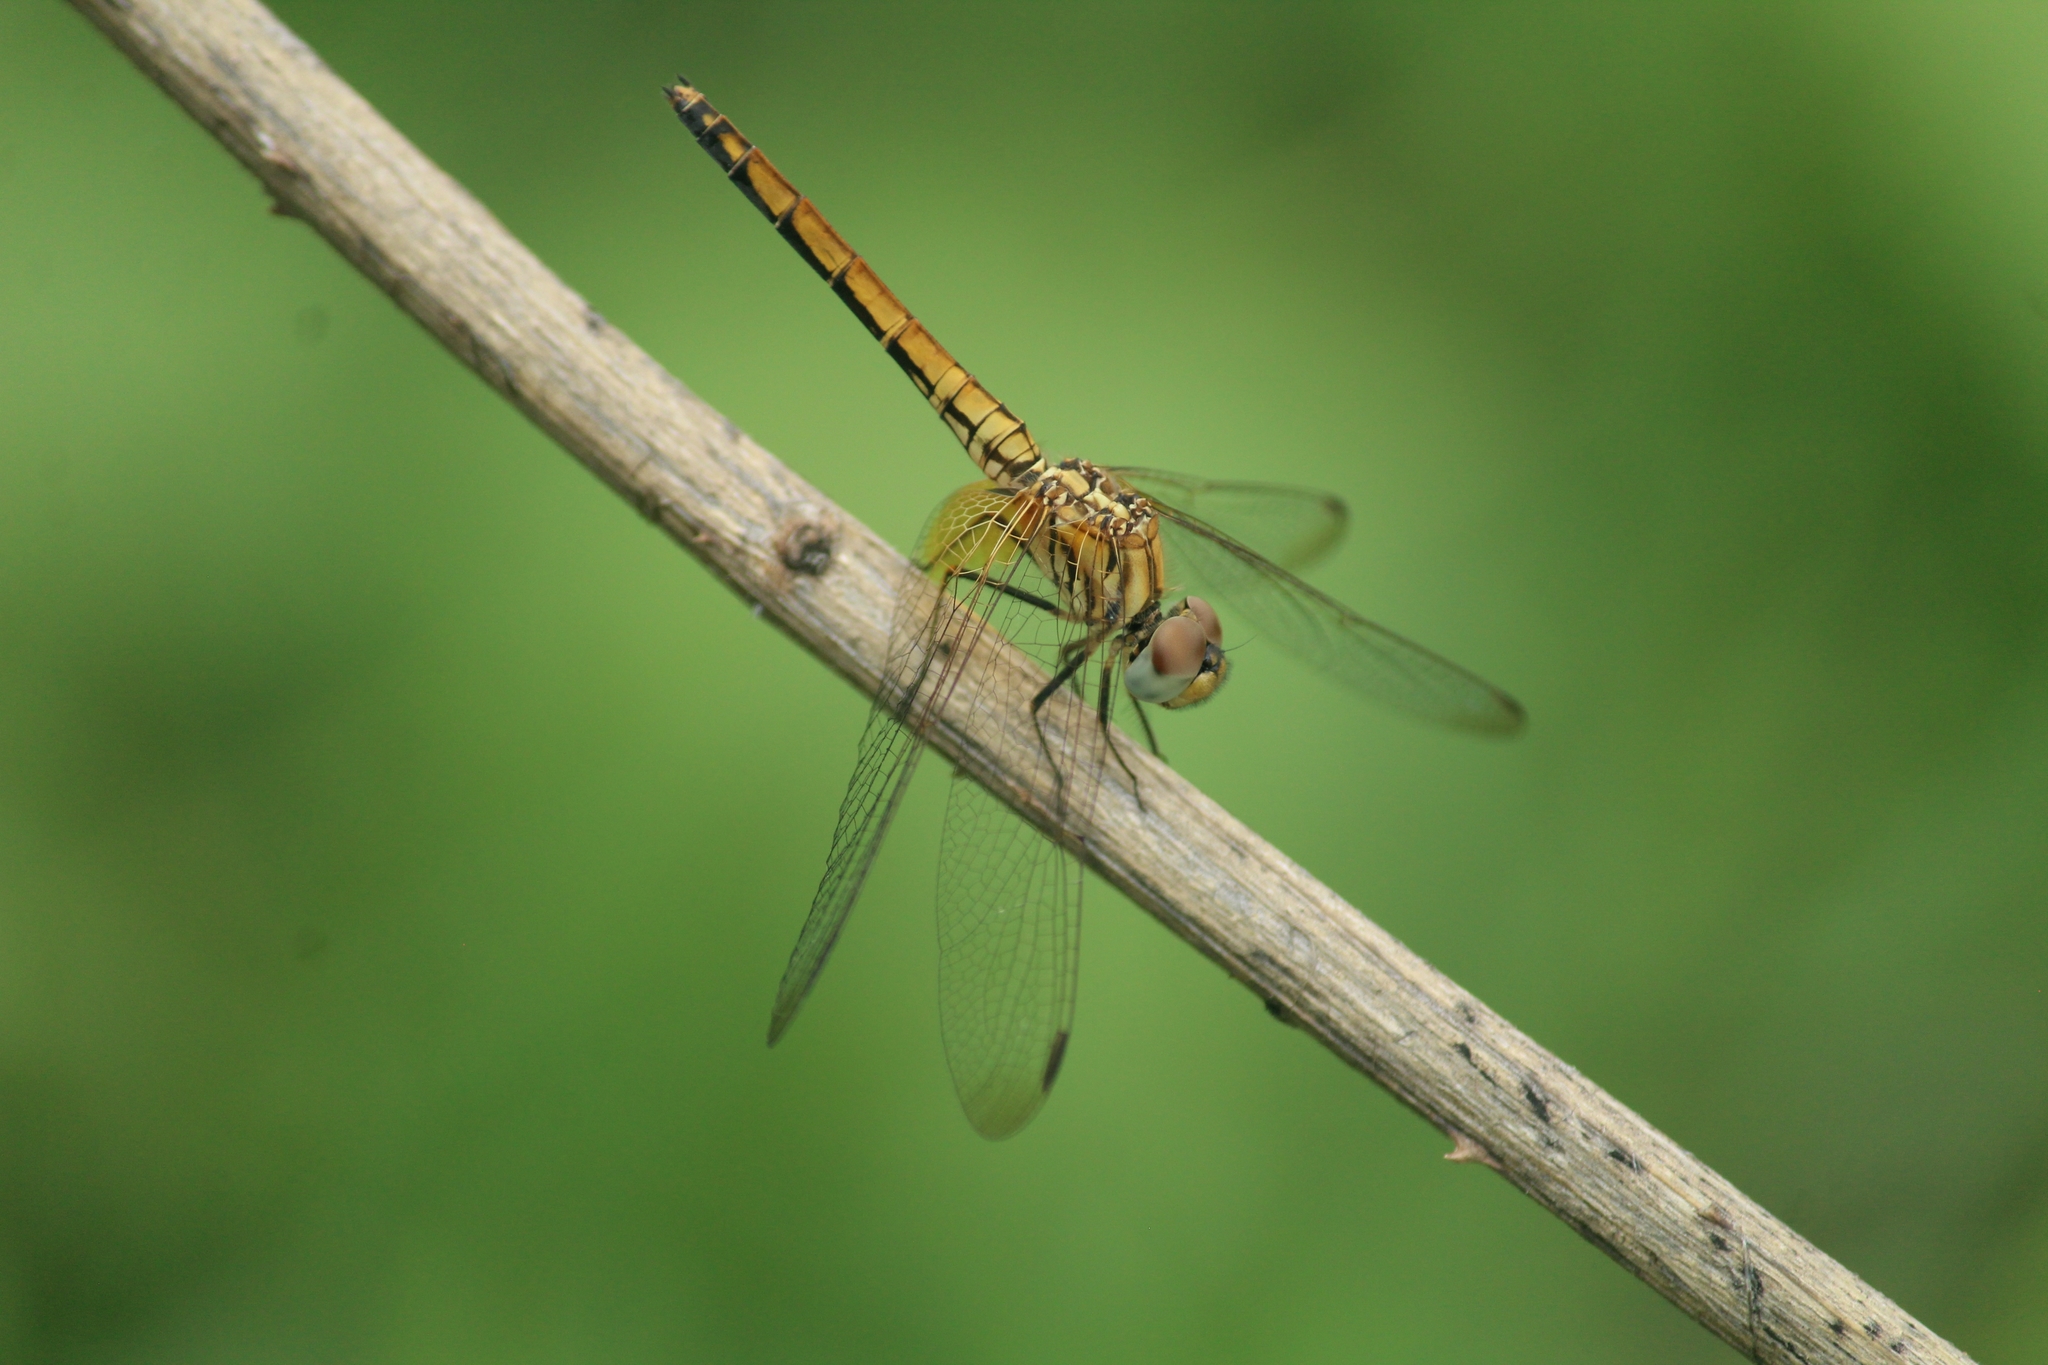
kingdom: Animalia
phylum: Arthropoda
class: Insecta
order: Odonata
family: Libellulidae
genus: Trithemis
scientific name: Trithemis aurora
